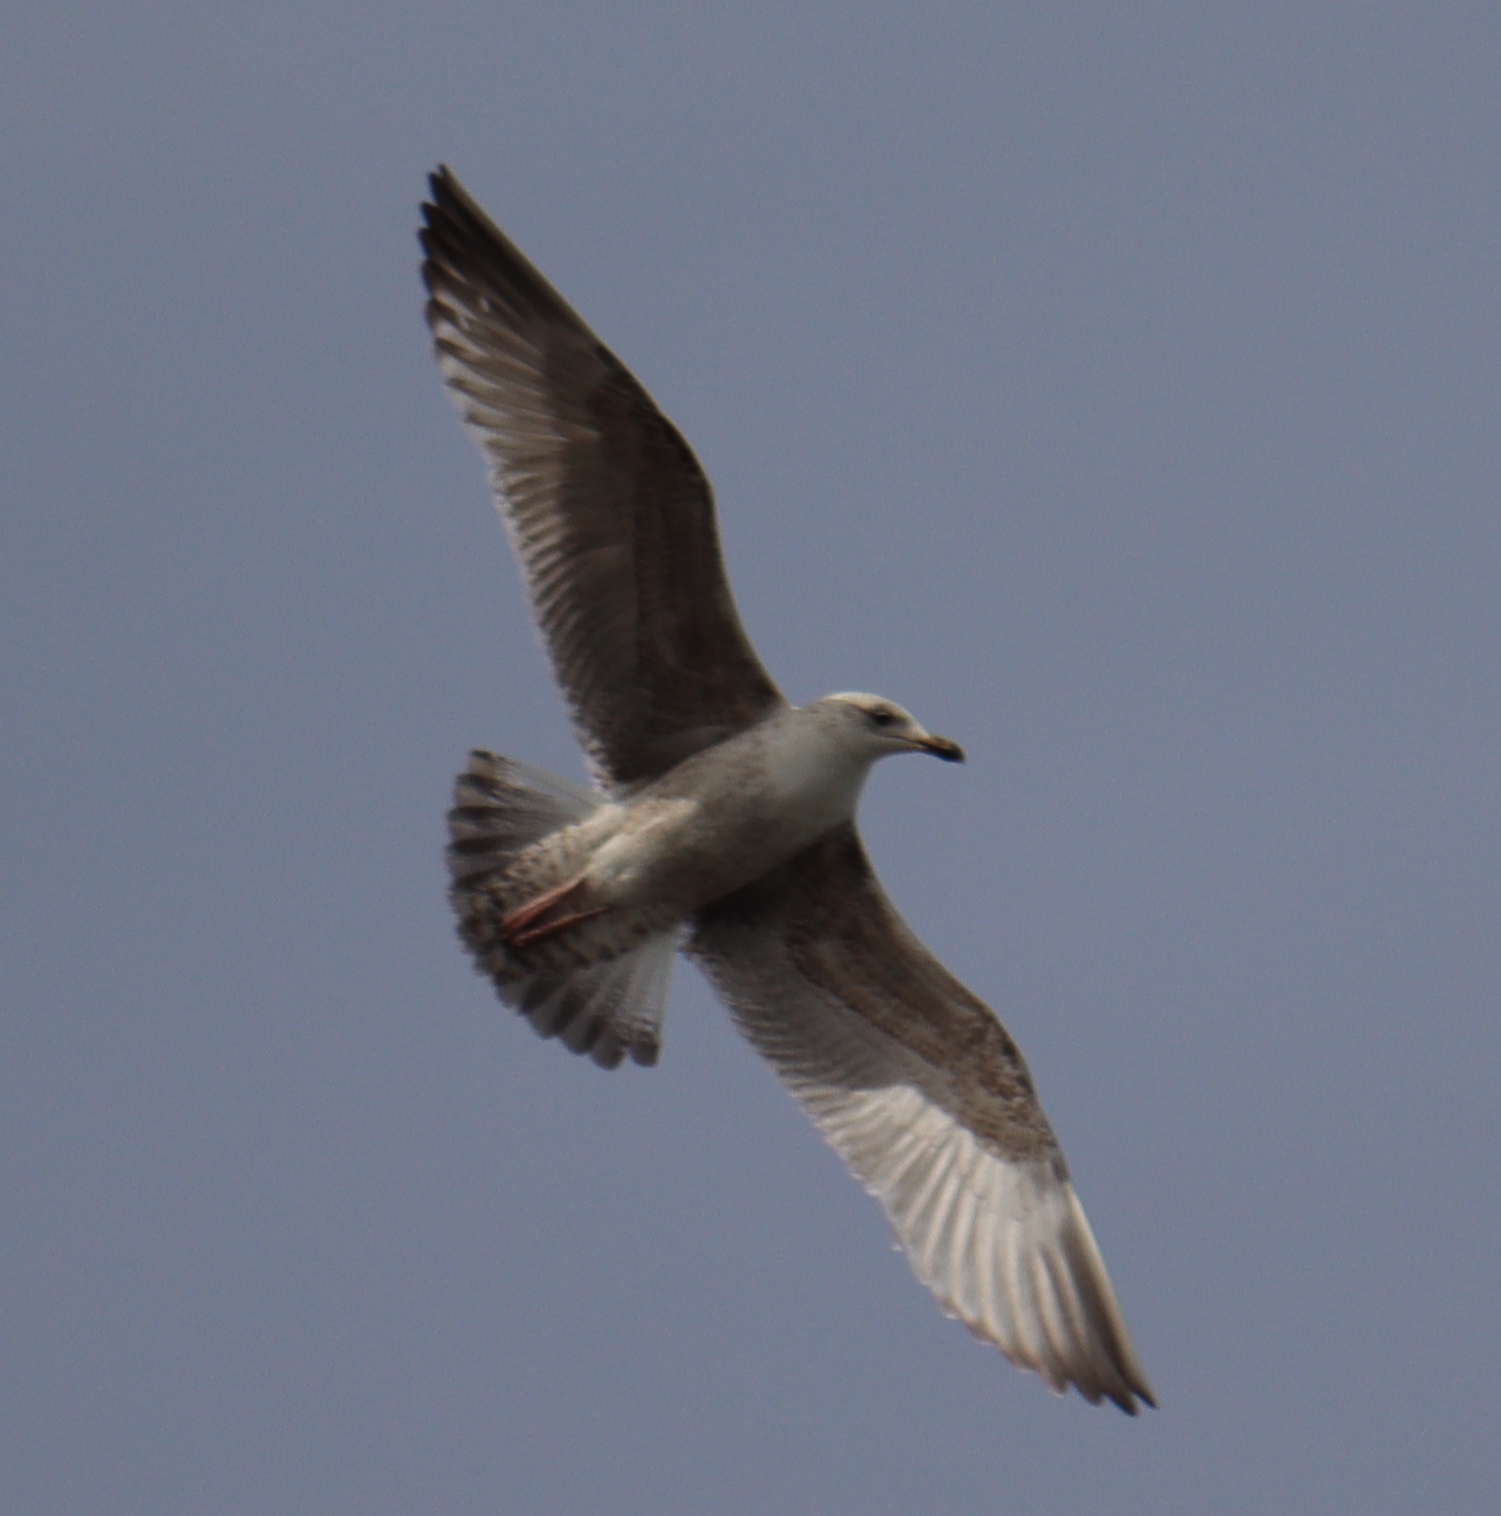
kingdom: Animalia
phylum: Chordata
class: Aves
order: Charadriiformes
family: Laridae
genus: Larus
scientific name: Larus argentatus
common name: Herring gull
